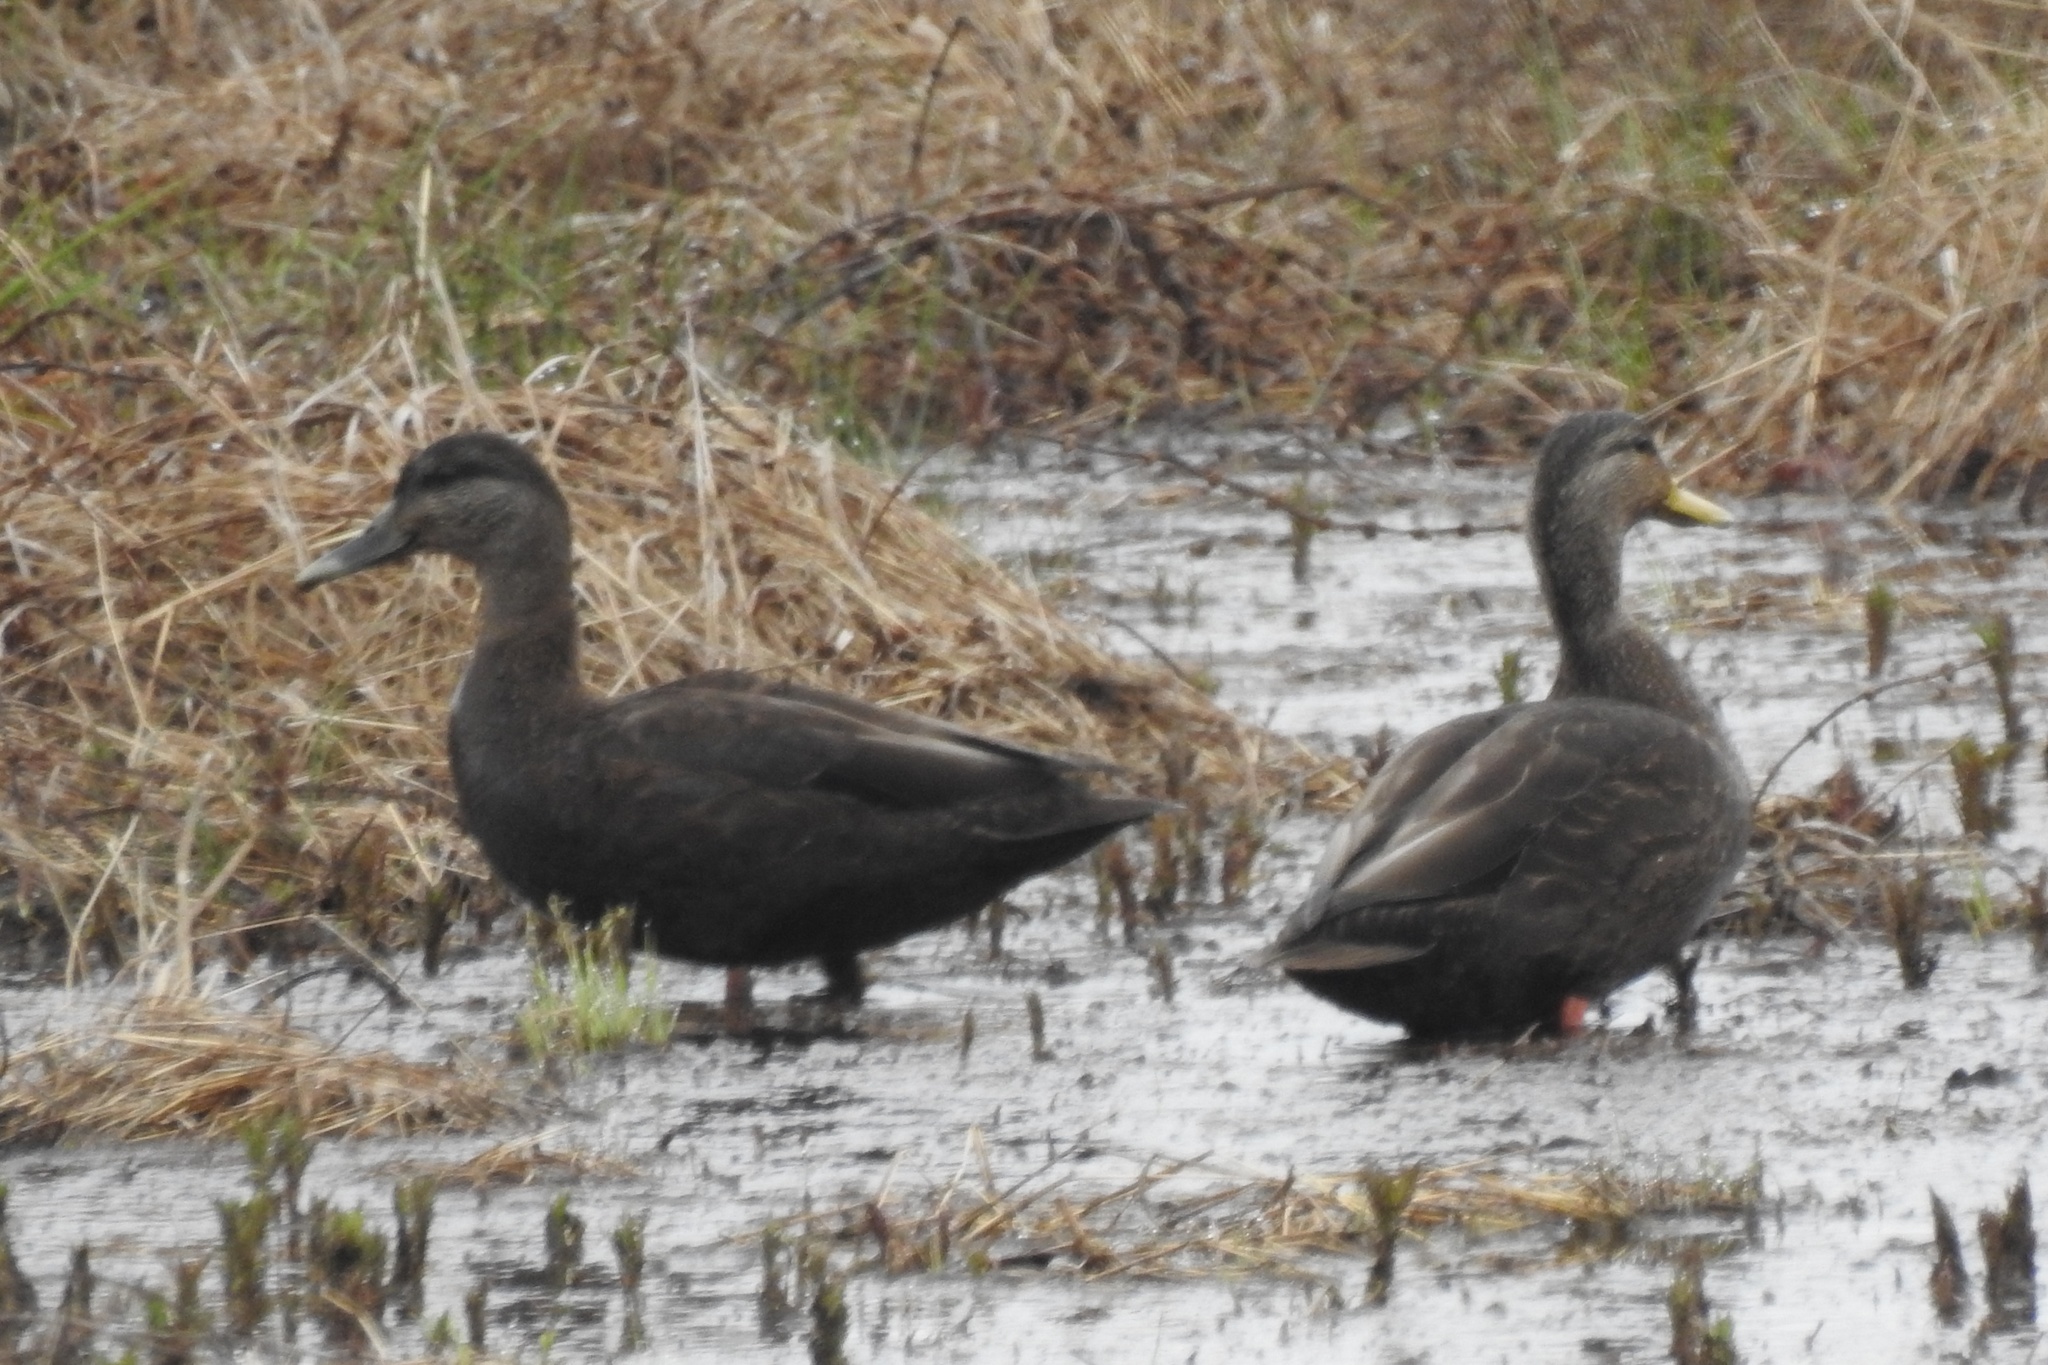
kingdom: Animalia
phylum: Chordata
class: Aves
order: Anseriformes
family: Anatidae
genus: Anas
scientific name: Anas rubripes
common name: American black duck
